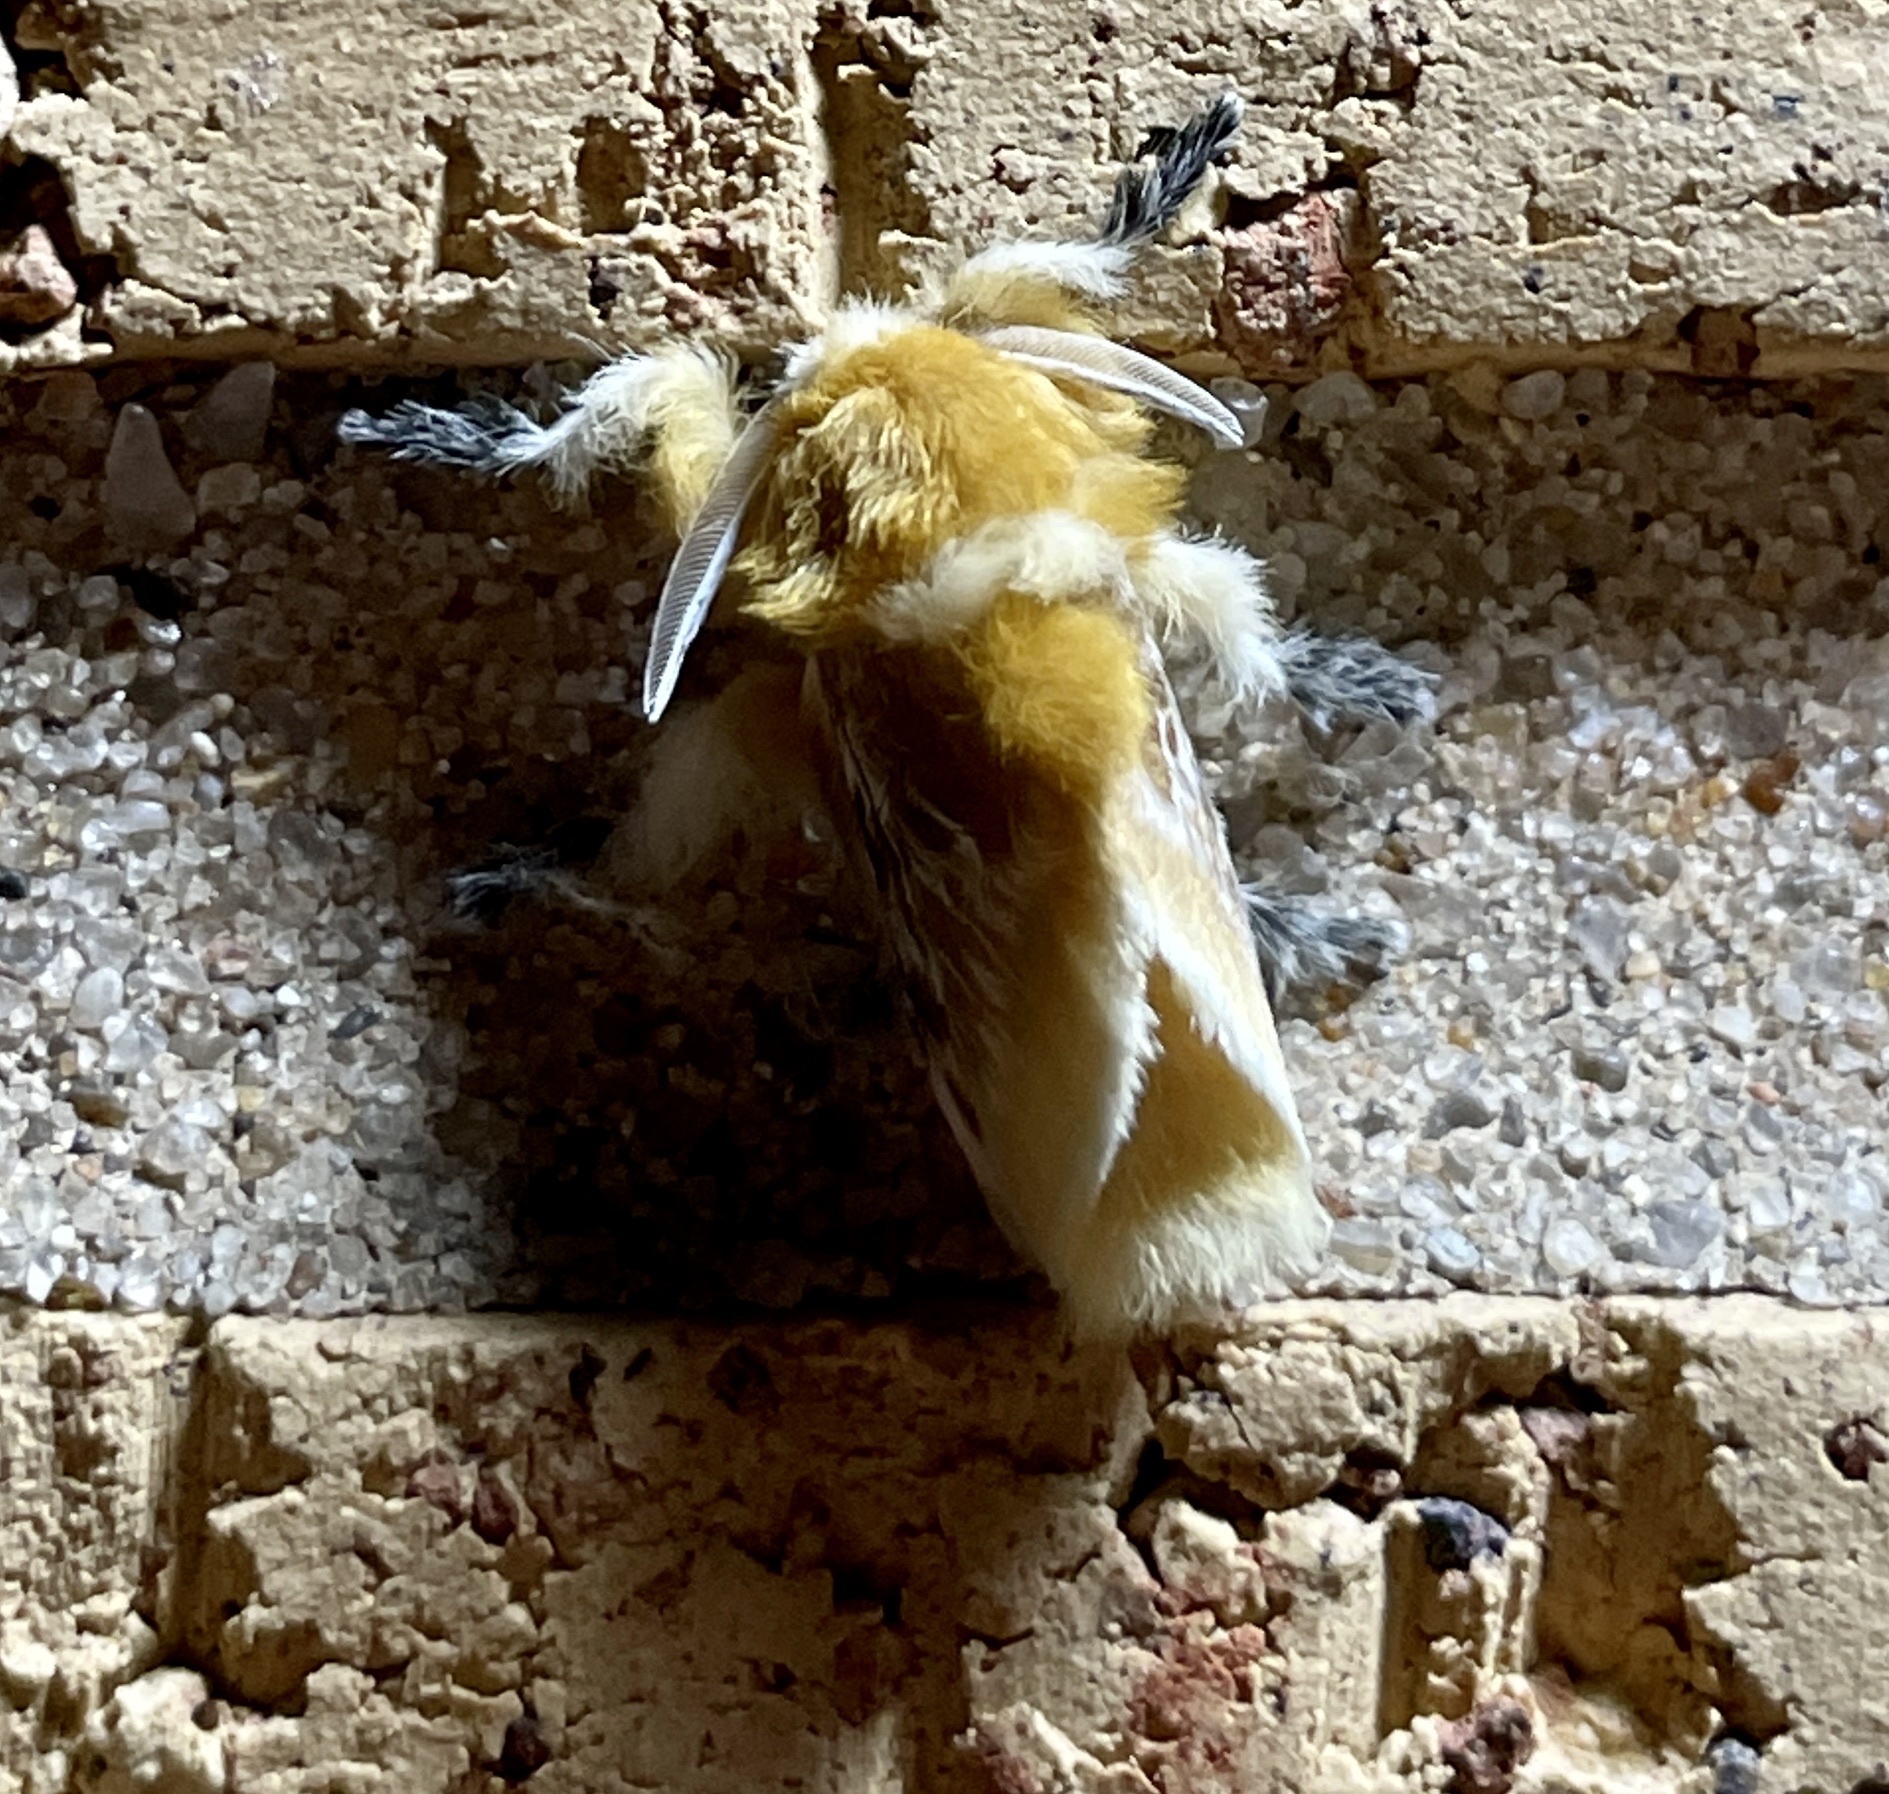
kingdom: Animalia
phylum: Arthropoda
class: Insecta
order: Lepidoptera
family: Megalopygidae
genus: Megalopyge
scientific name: Megalopyge opercularis
